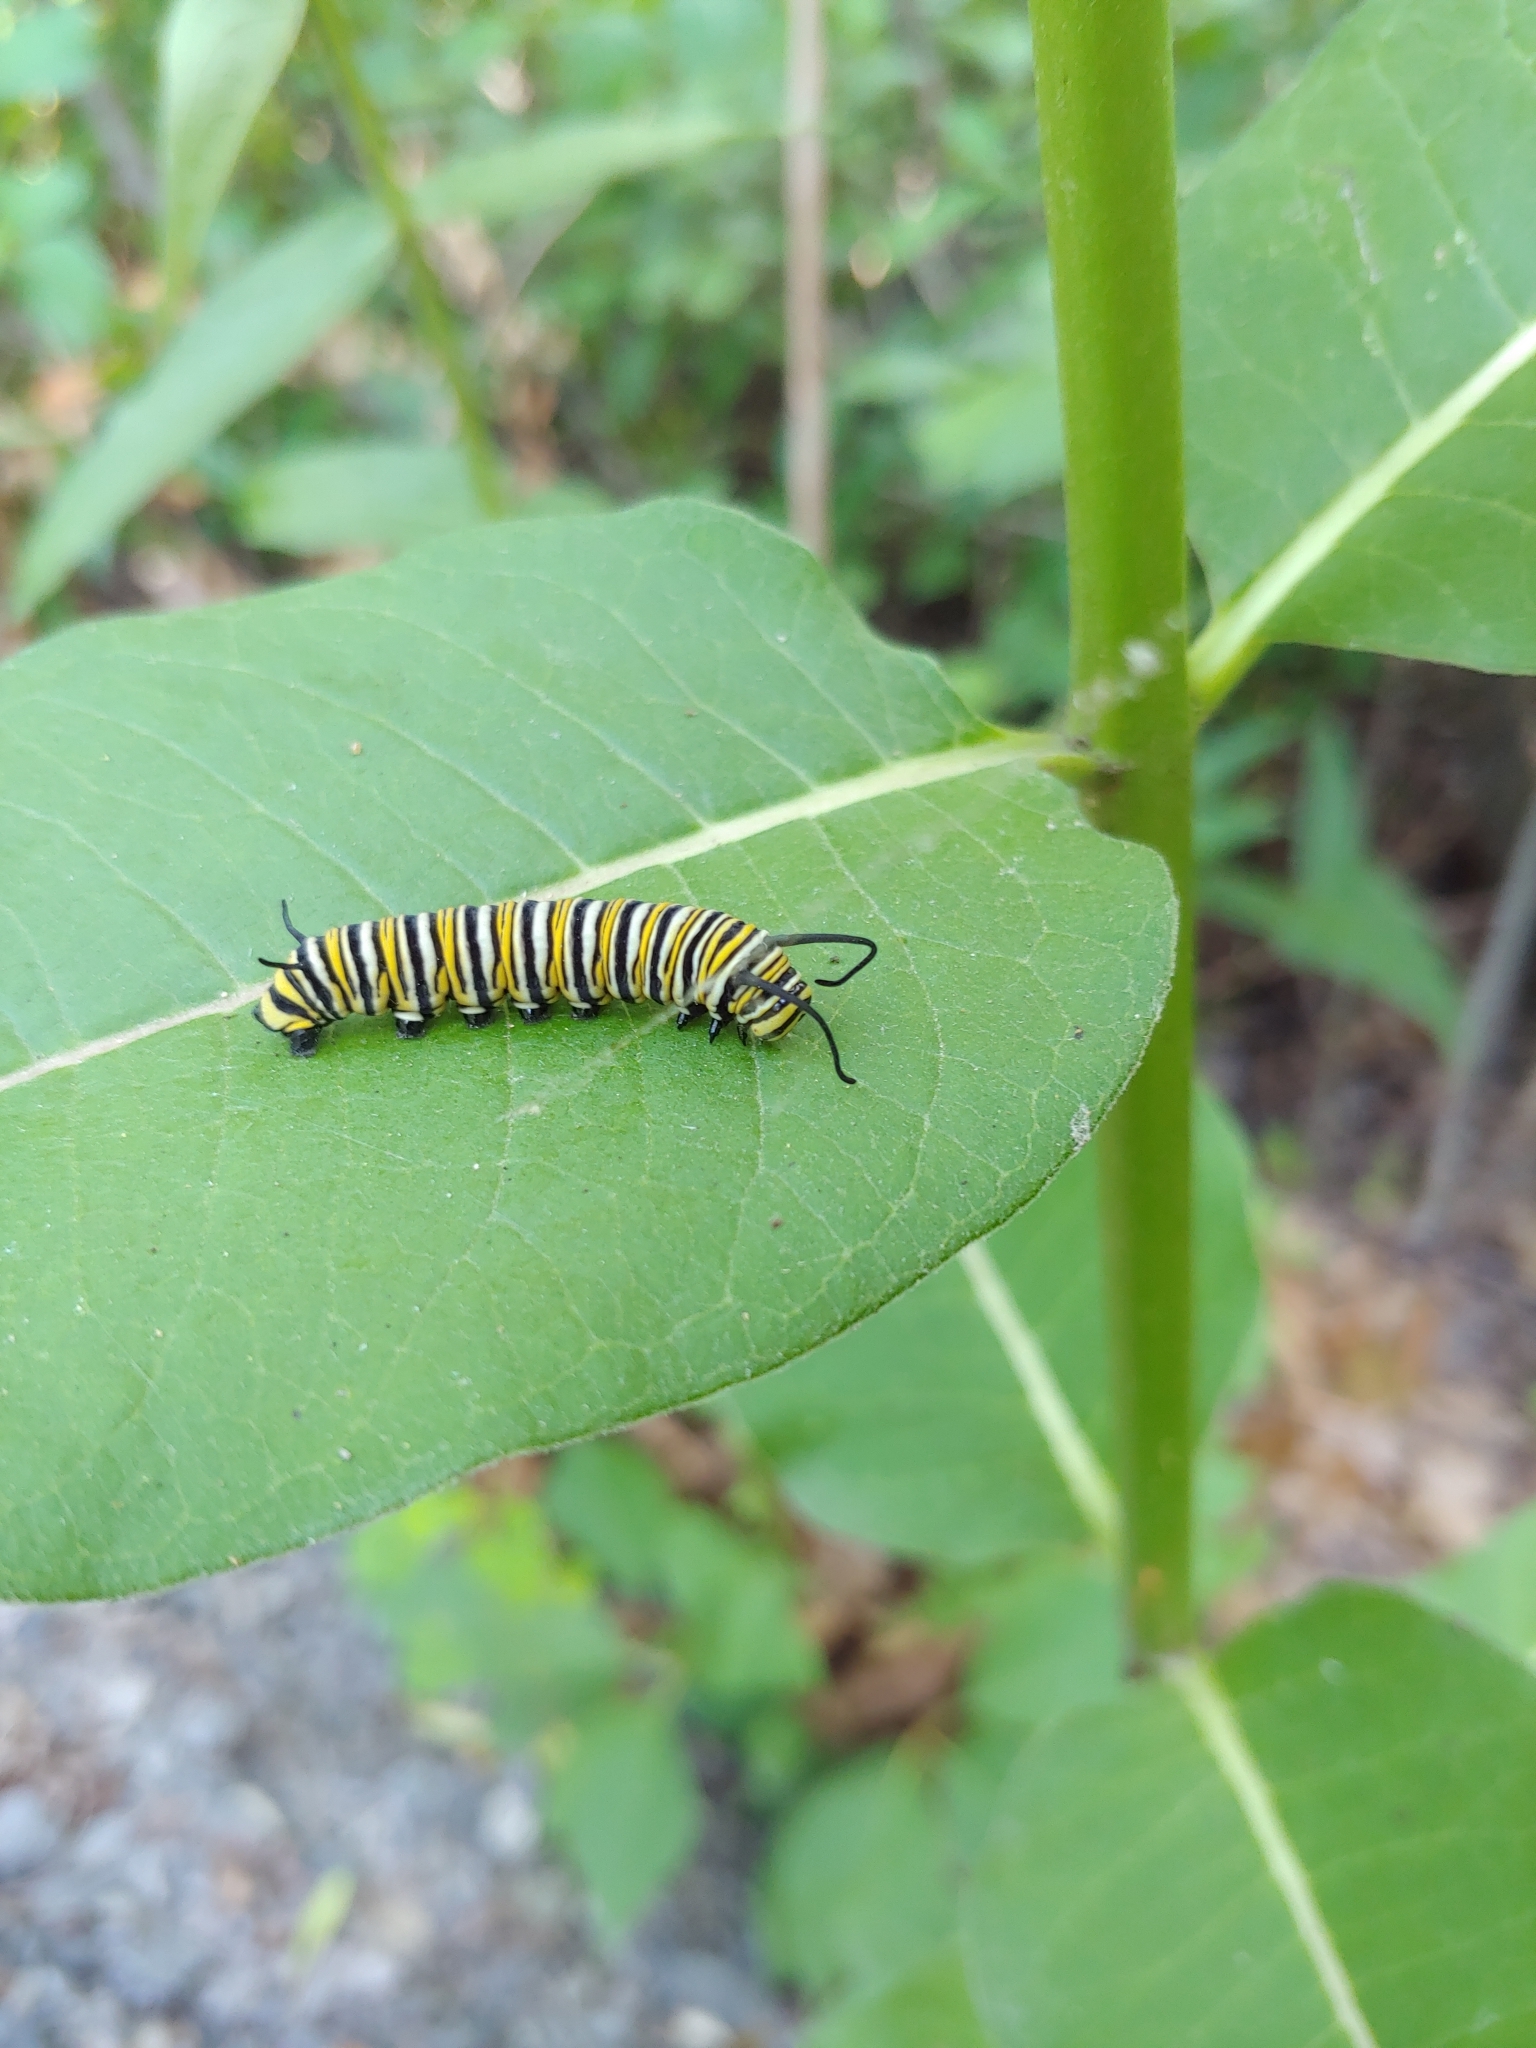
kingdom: Animalia
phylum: Arthropoda
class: Insecta
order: Lepidoptera
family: Nymphalidae
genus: Danaus
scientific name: Danaus plexippus
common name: Monarch
